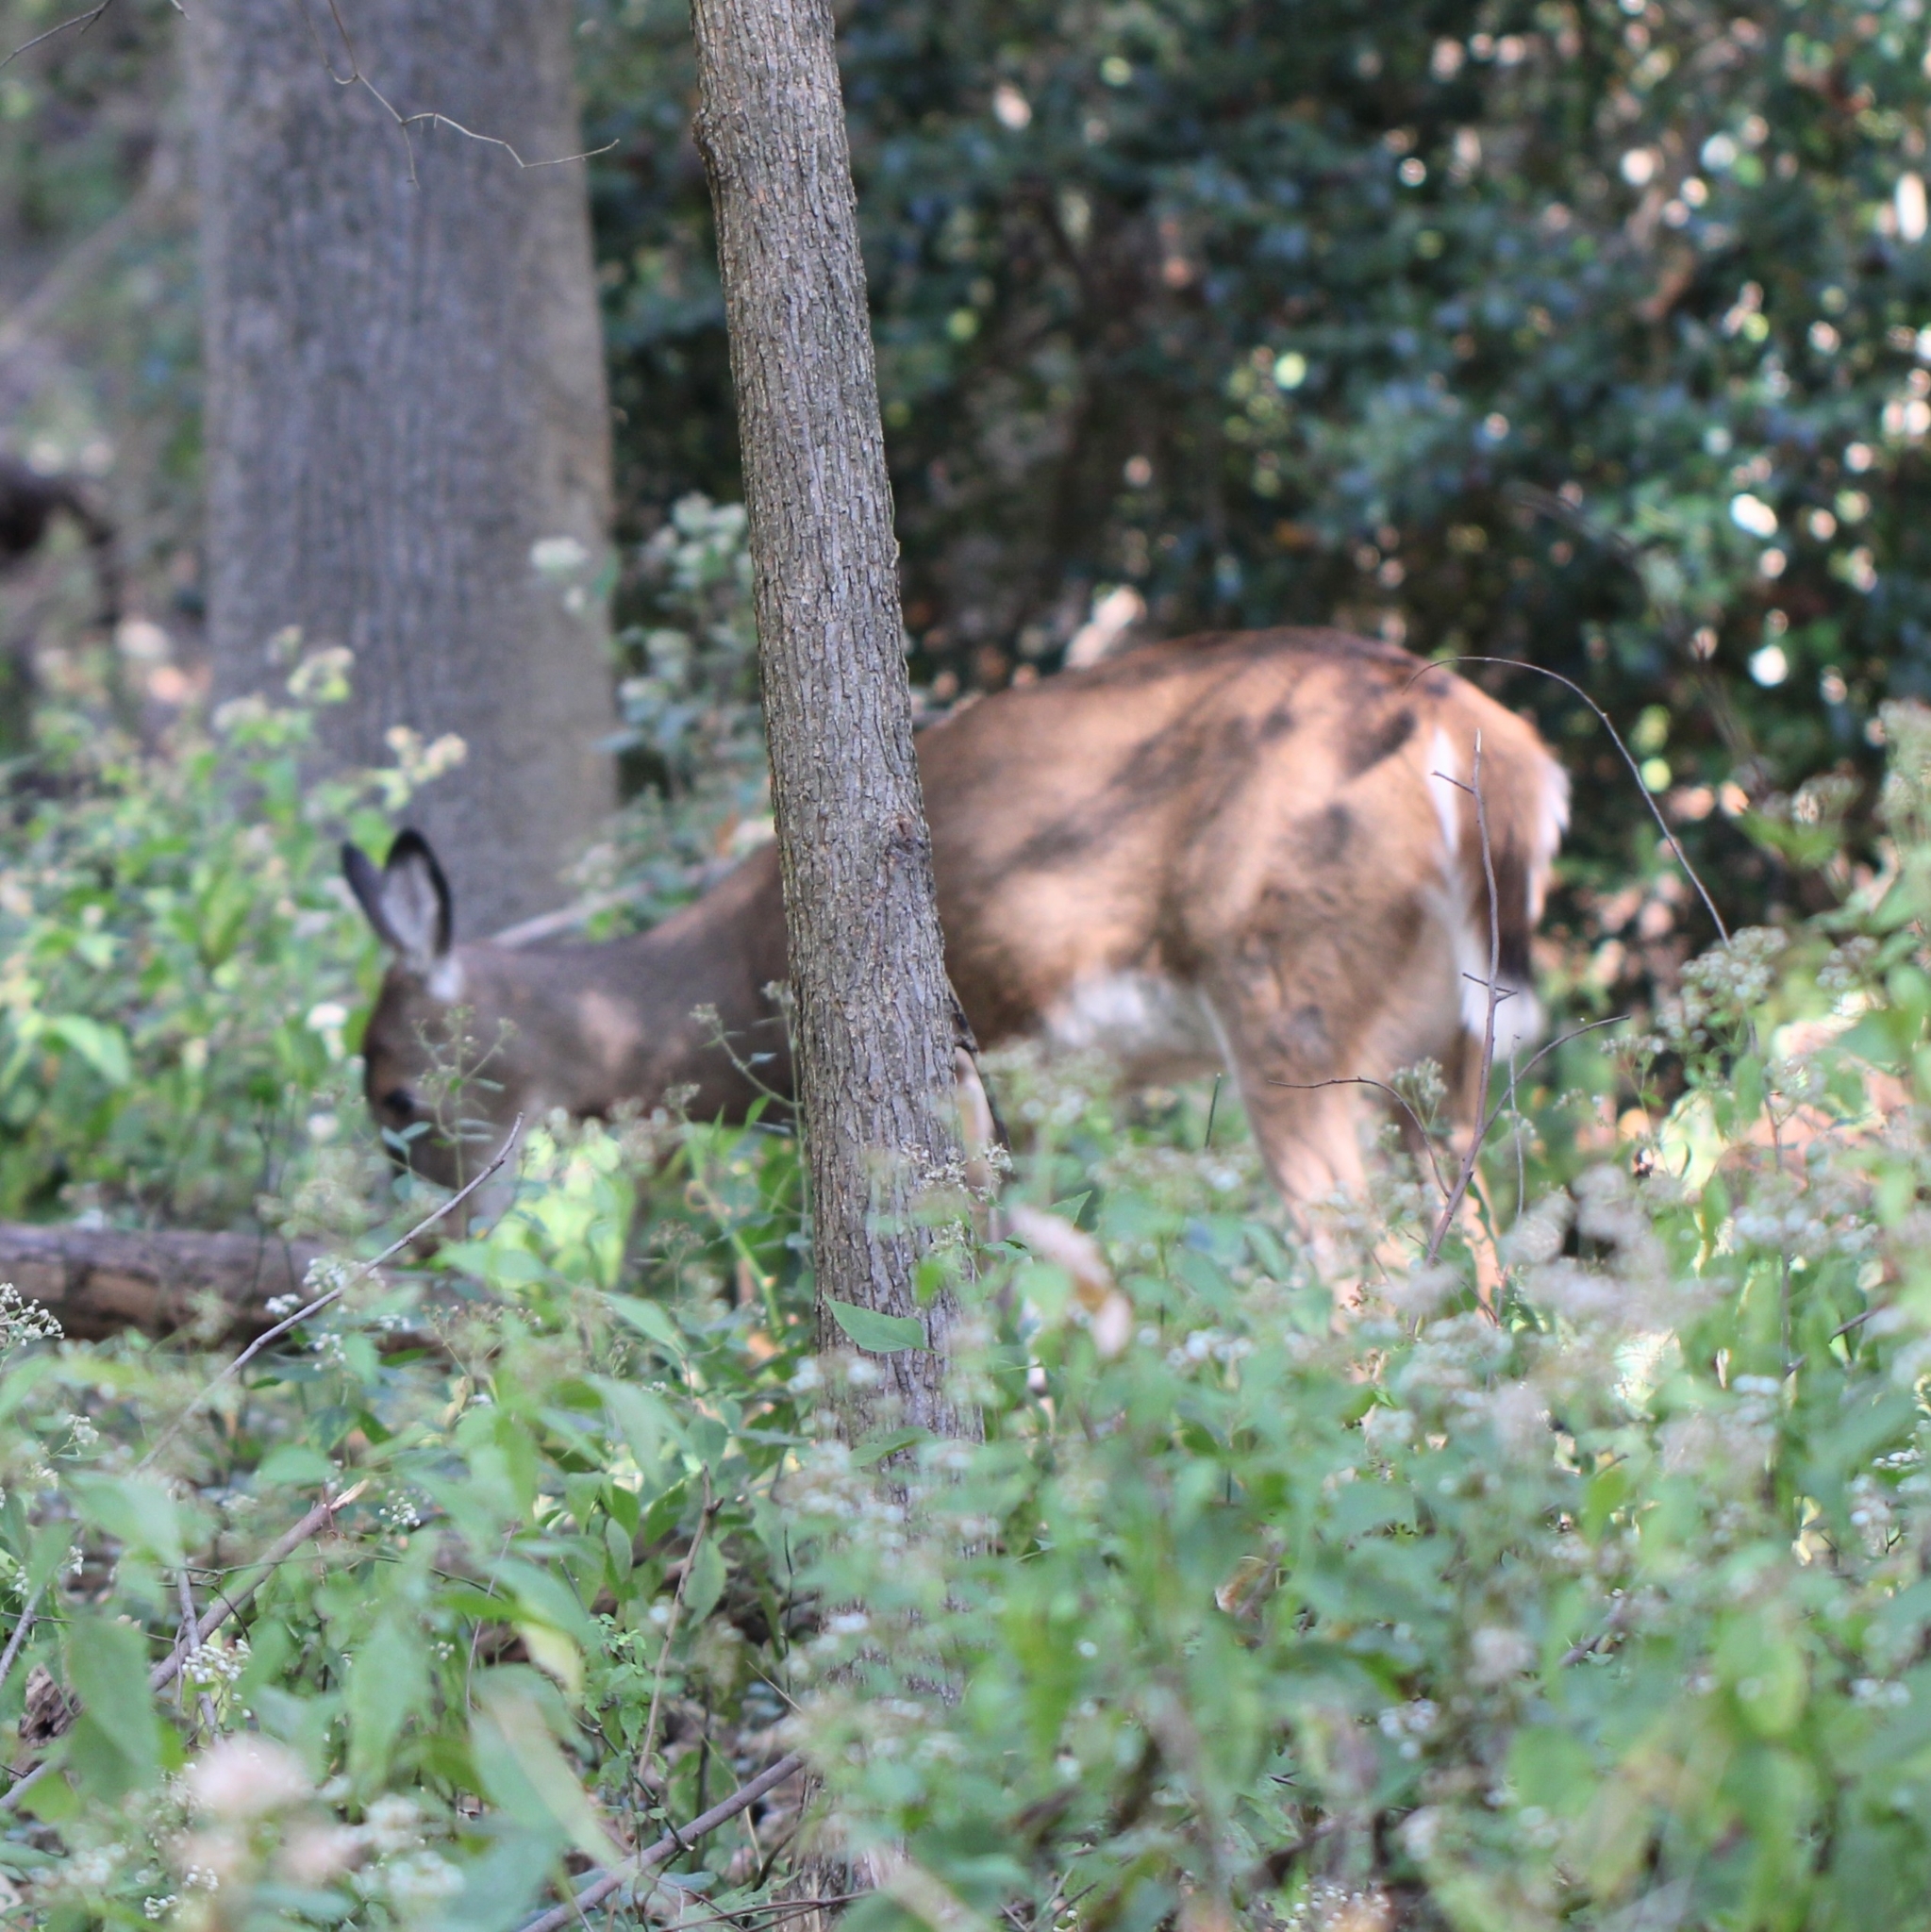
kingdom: Animalia
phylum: Chordata
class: Mammalia
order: Artiodactyla
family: Cervidae
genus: Odocoileus
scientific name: Odocoileus virginianus
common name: White-tailed deer
